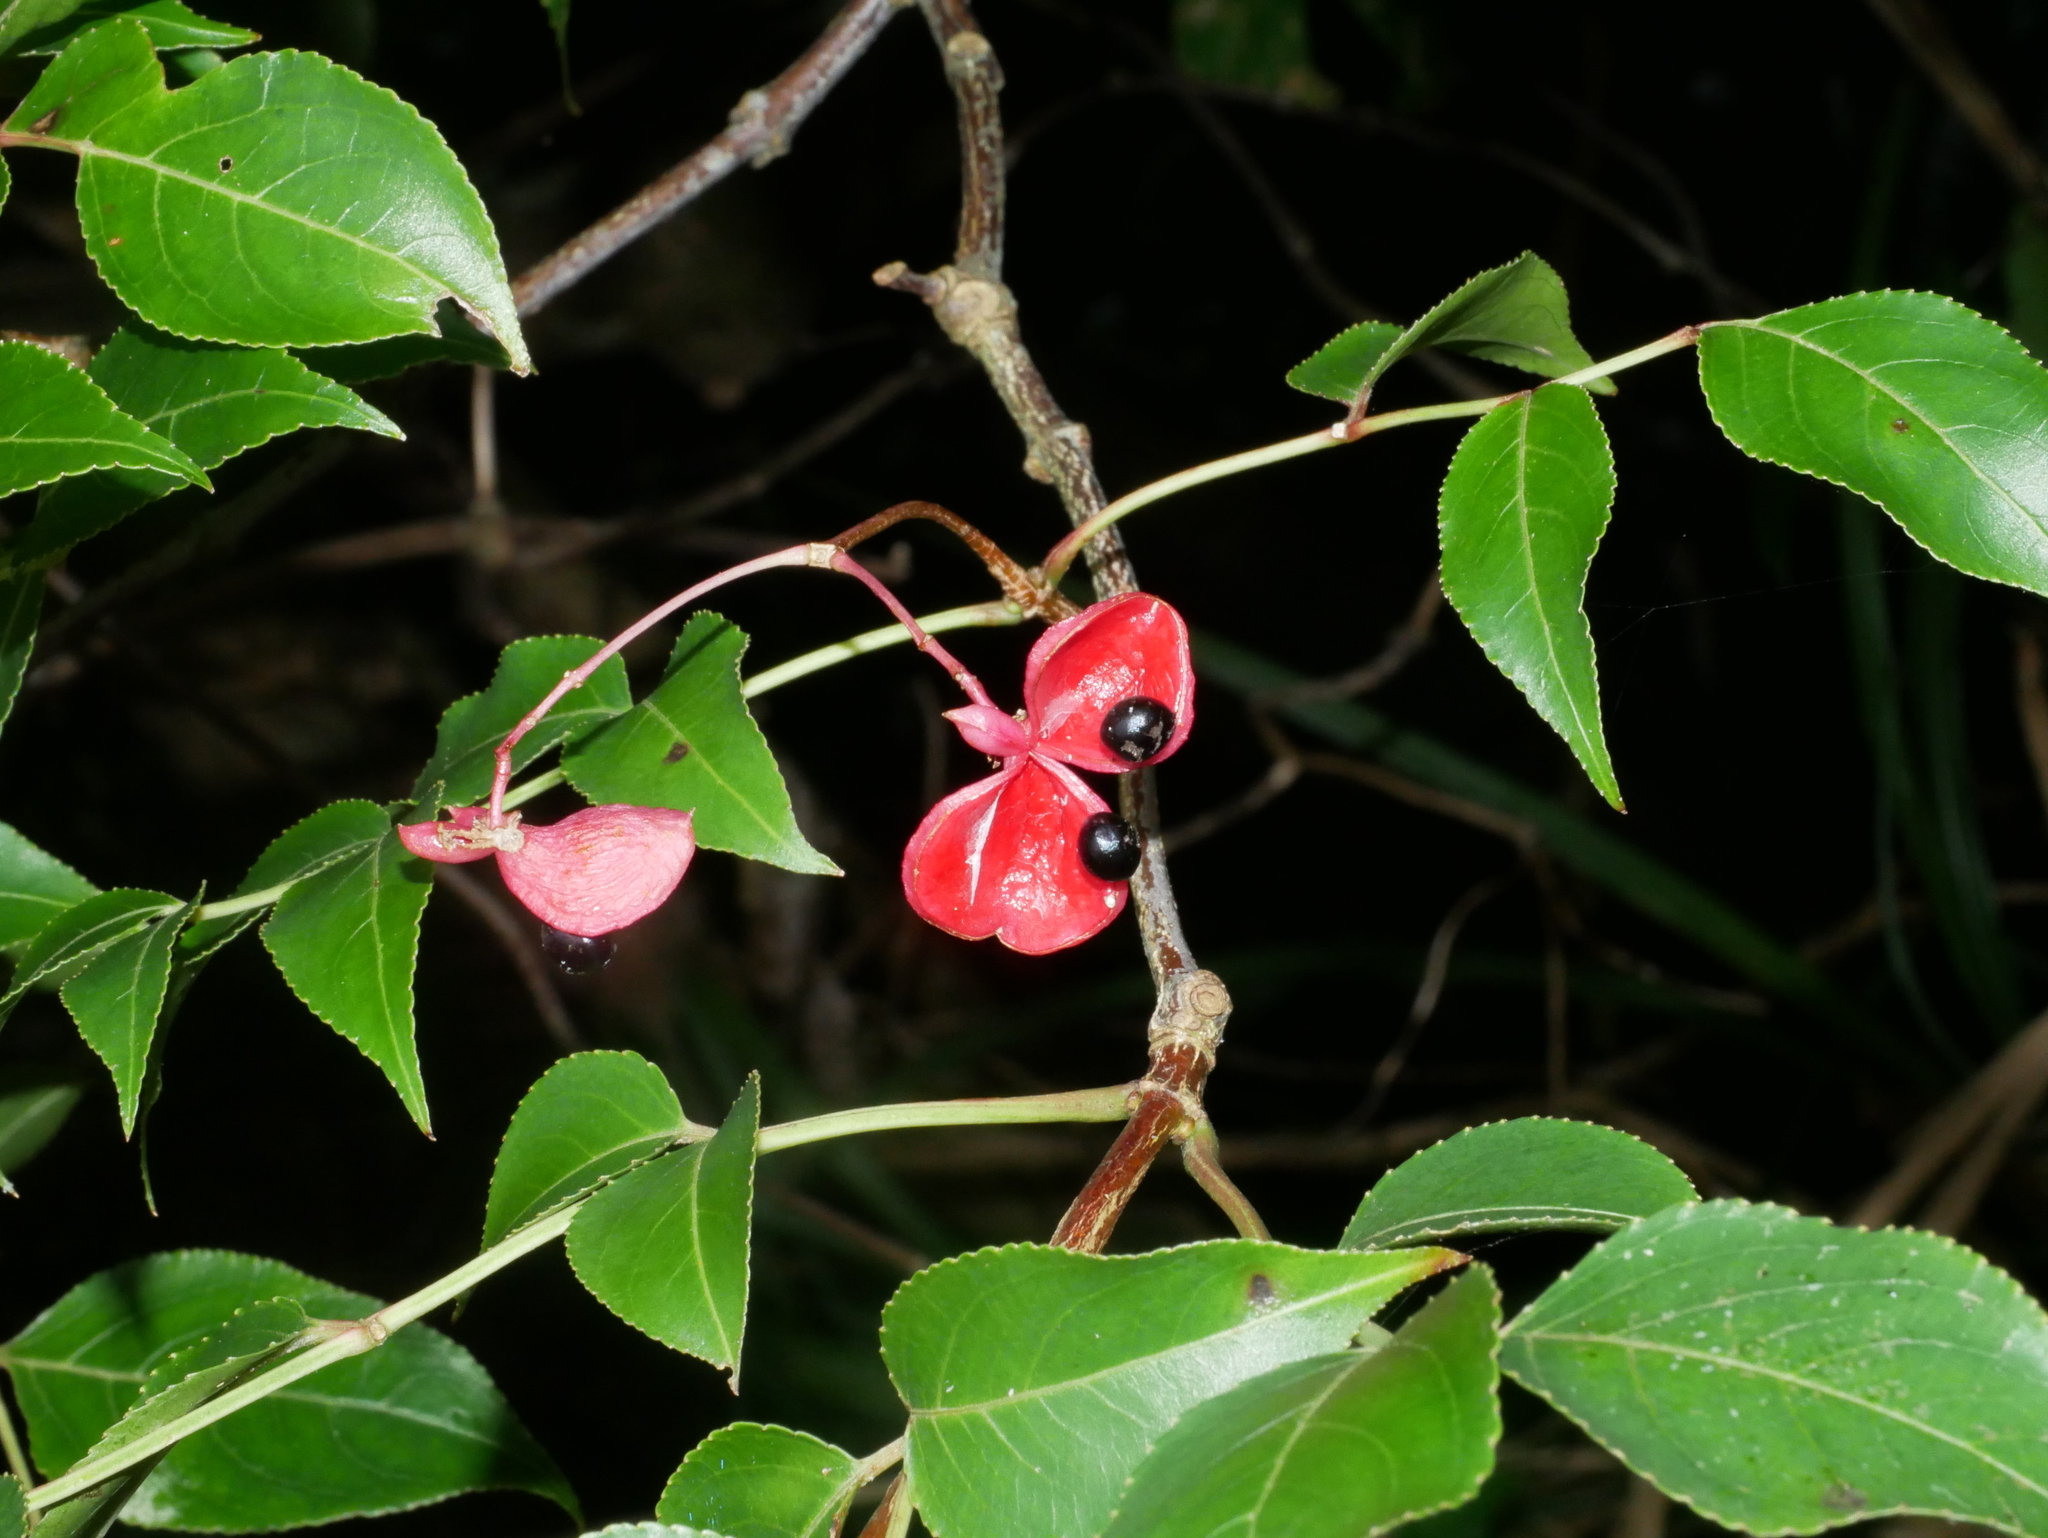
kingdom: Plantae
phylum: Tracheophyta
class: Magnoliopsida
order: Crossosomatales
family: Staphyleaceae
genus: Staphylea
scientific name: Staphylea japonica
